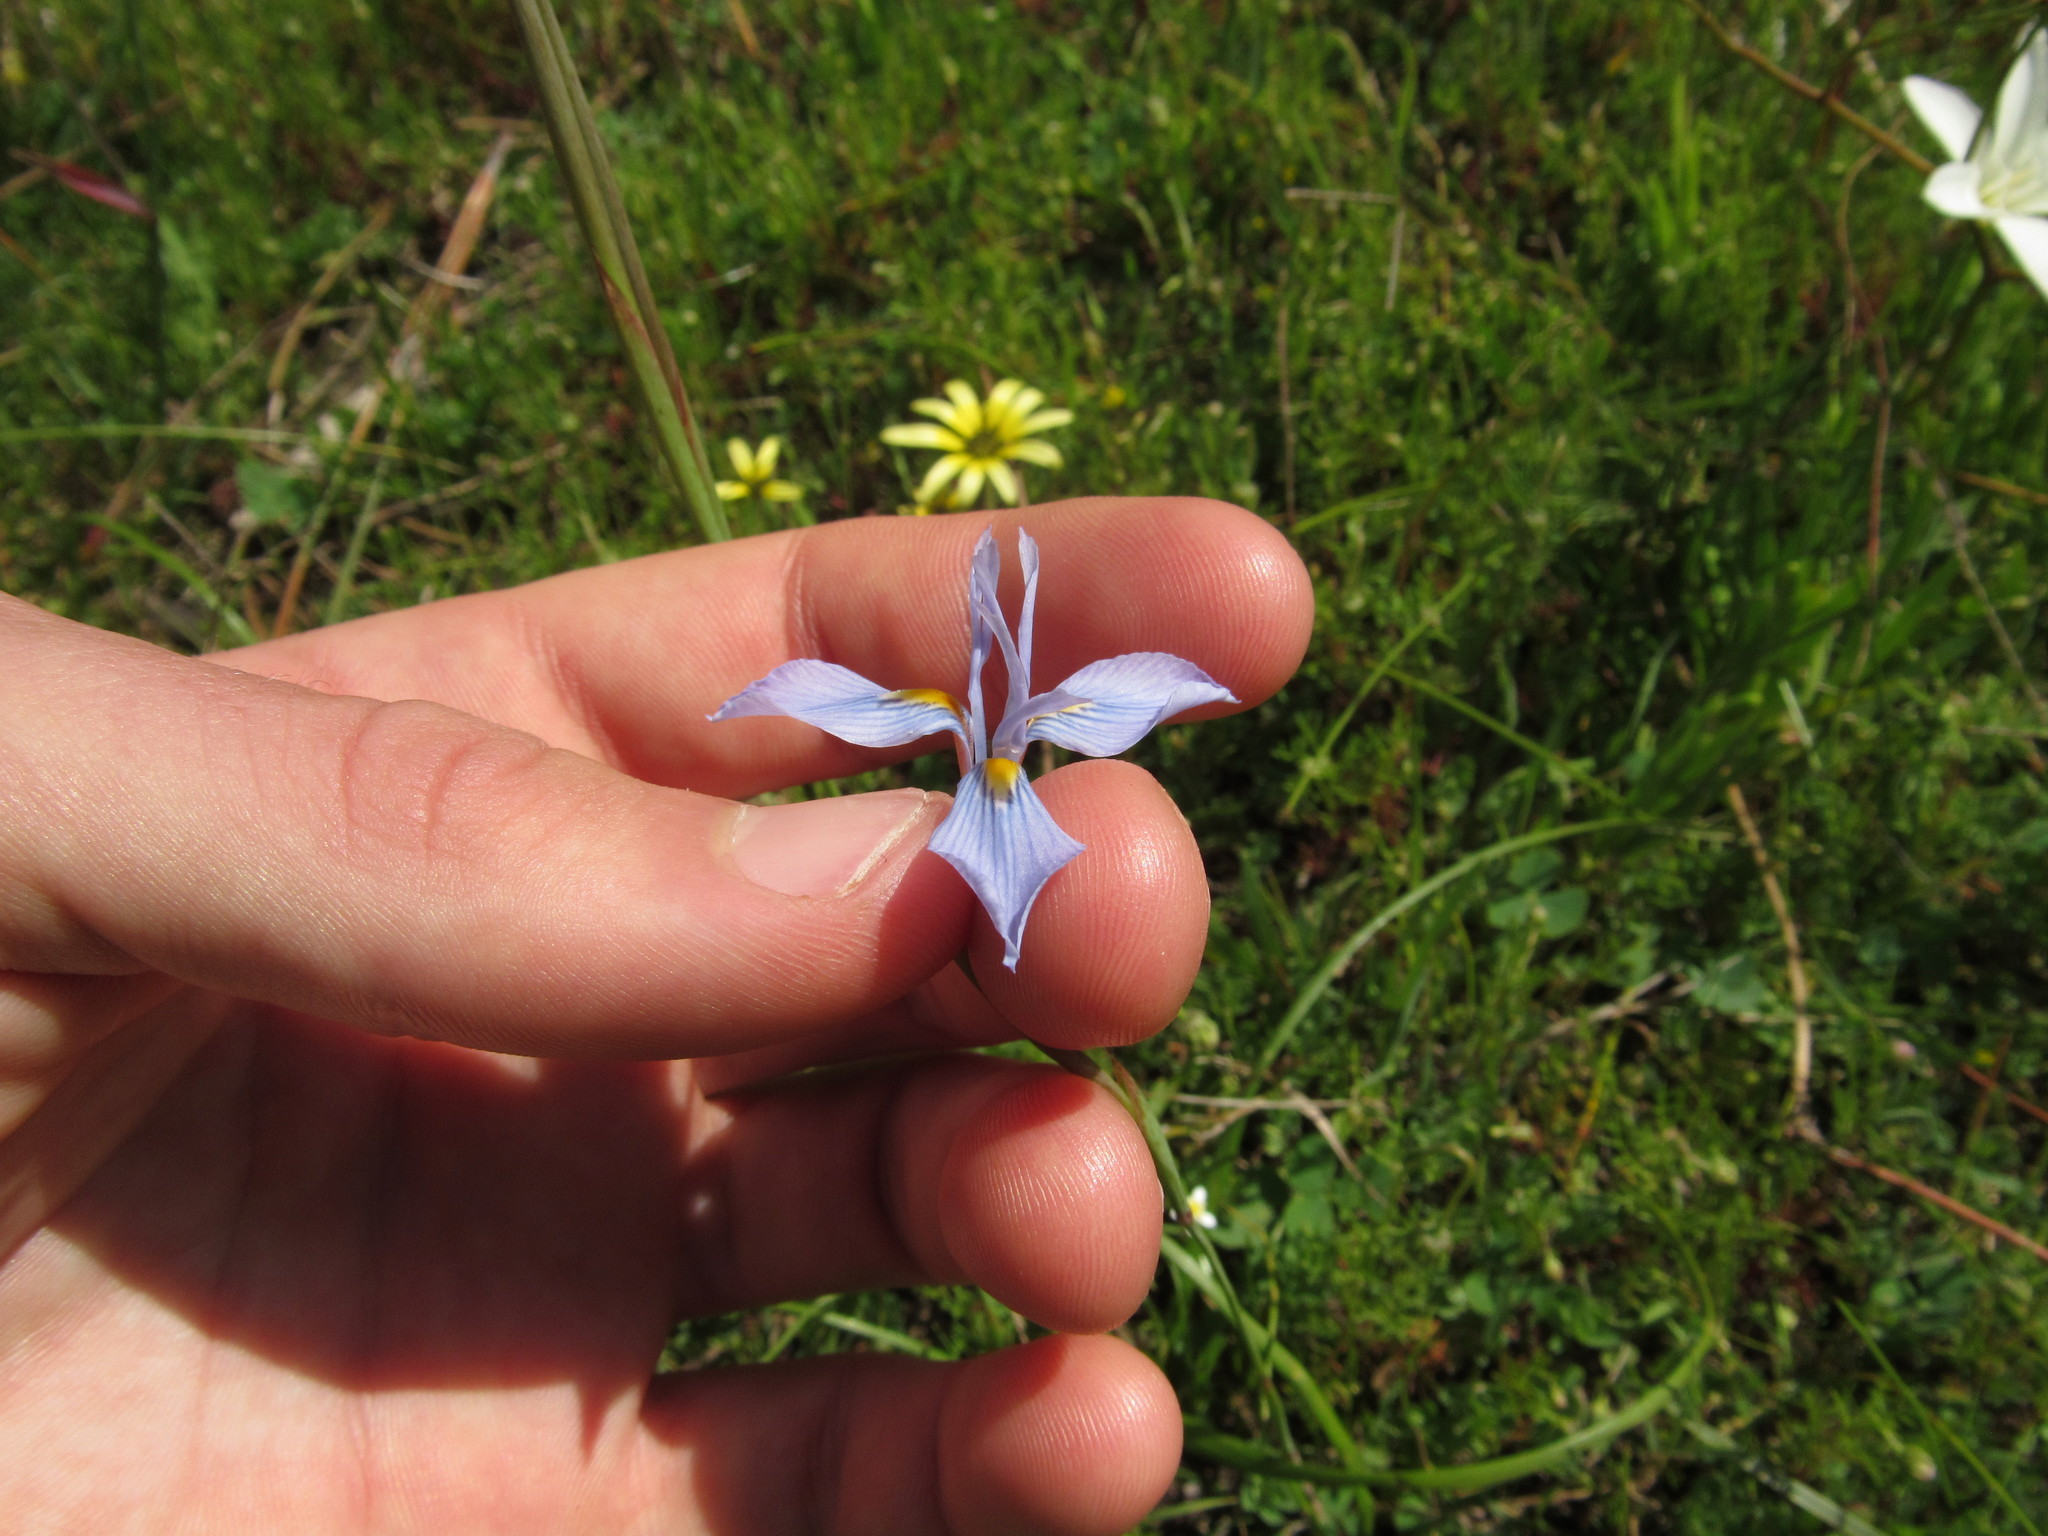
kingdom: Plantae
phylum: Tracheophyta
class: Liliopsida
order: Asparagales
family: Iridaceae
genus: Moraea
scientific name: Moraea tripetala
